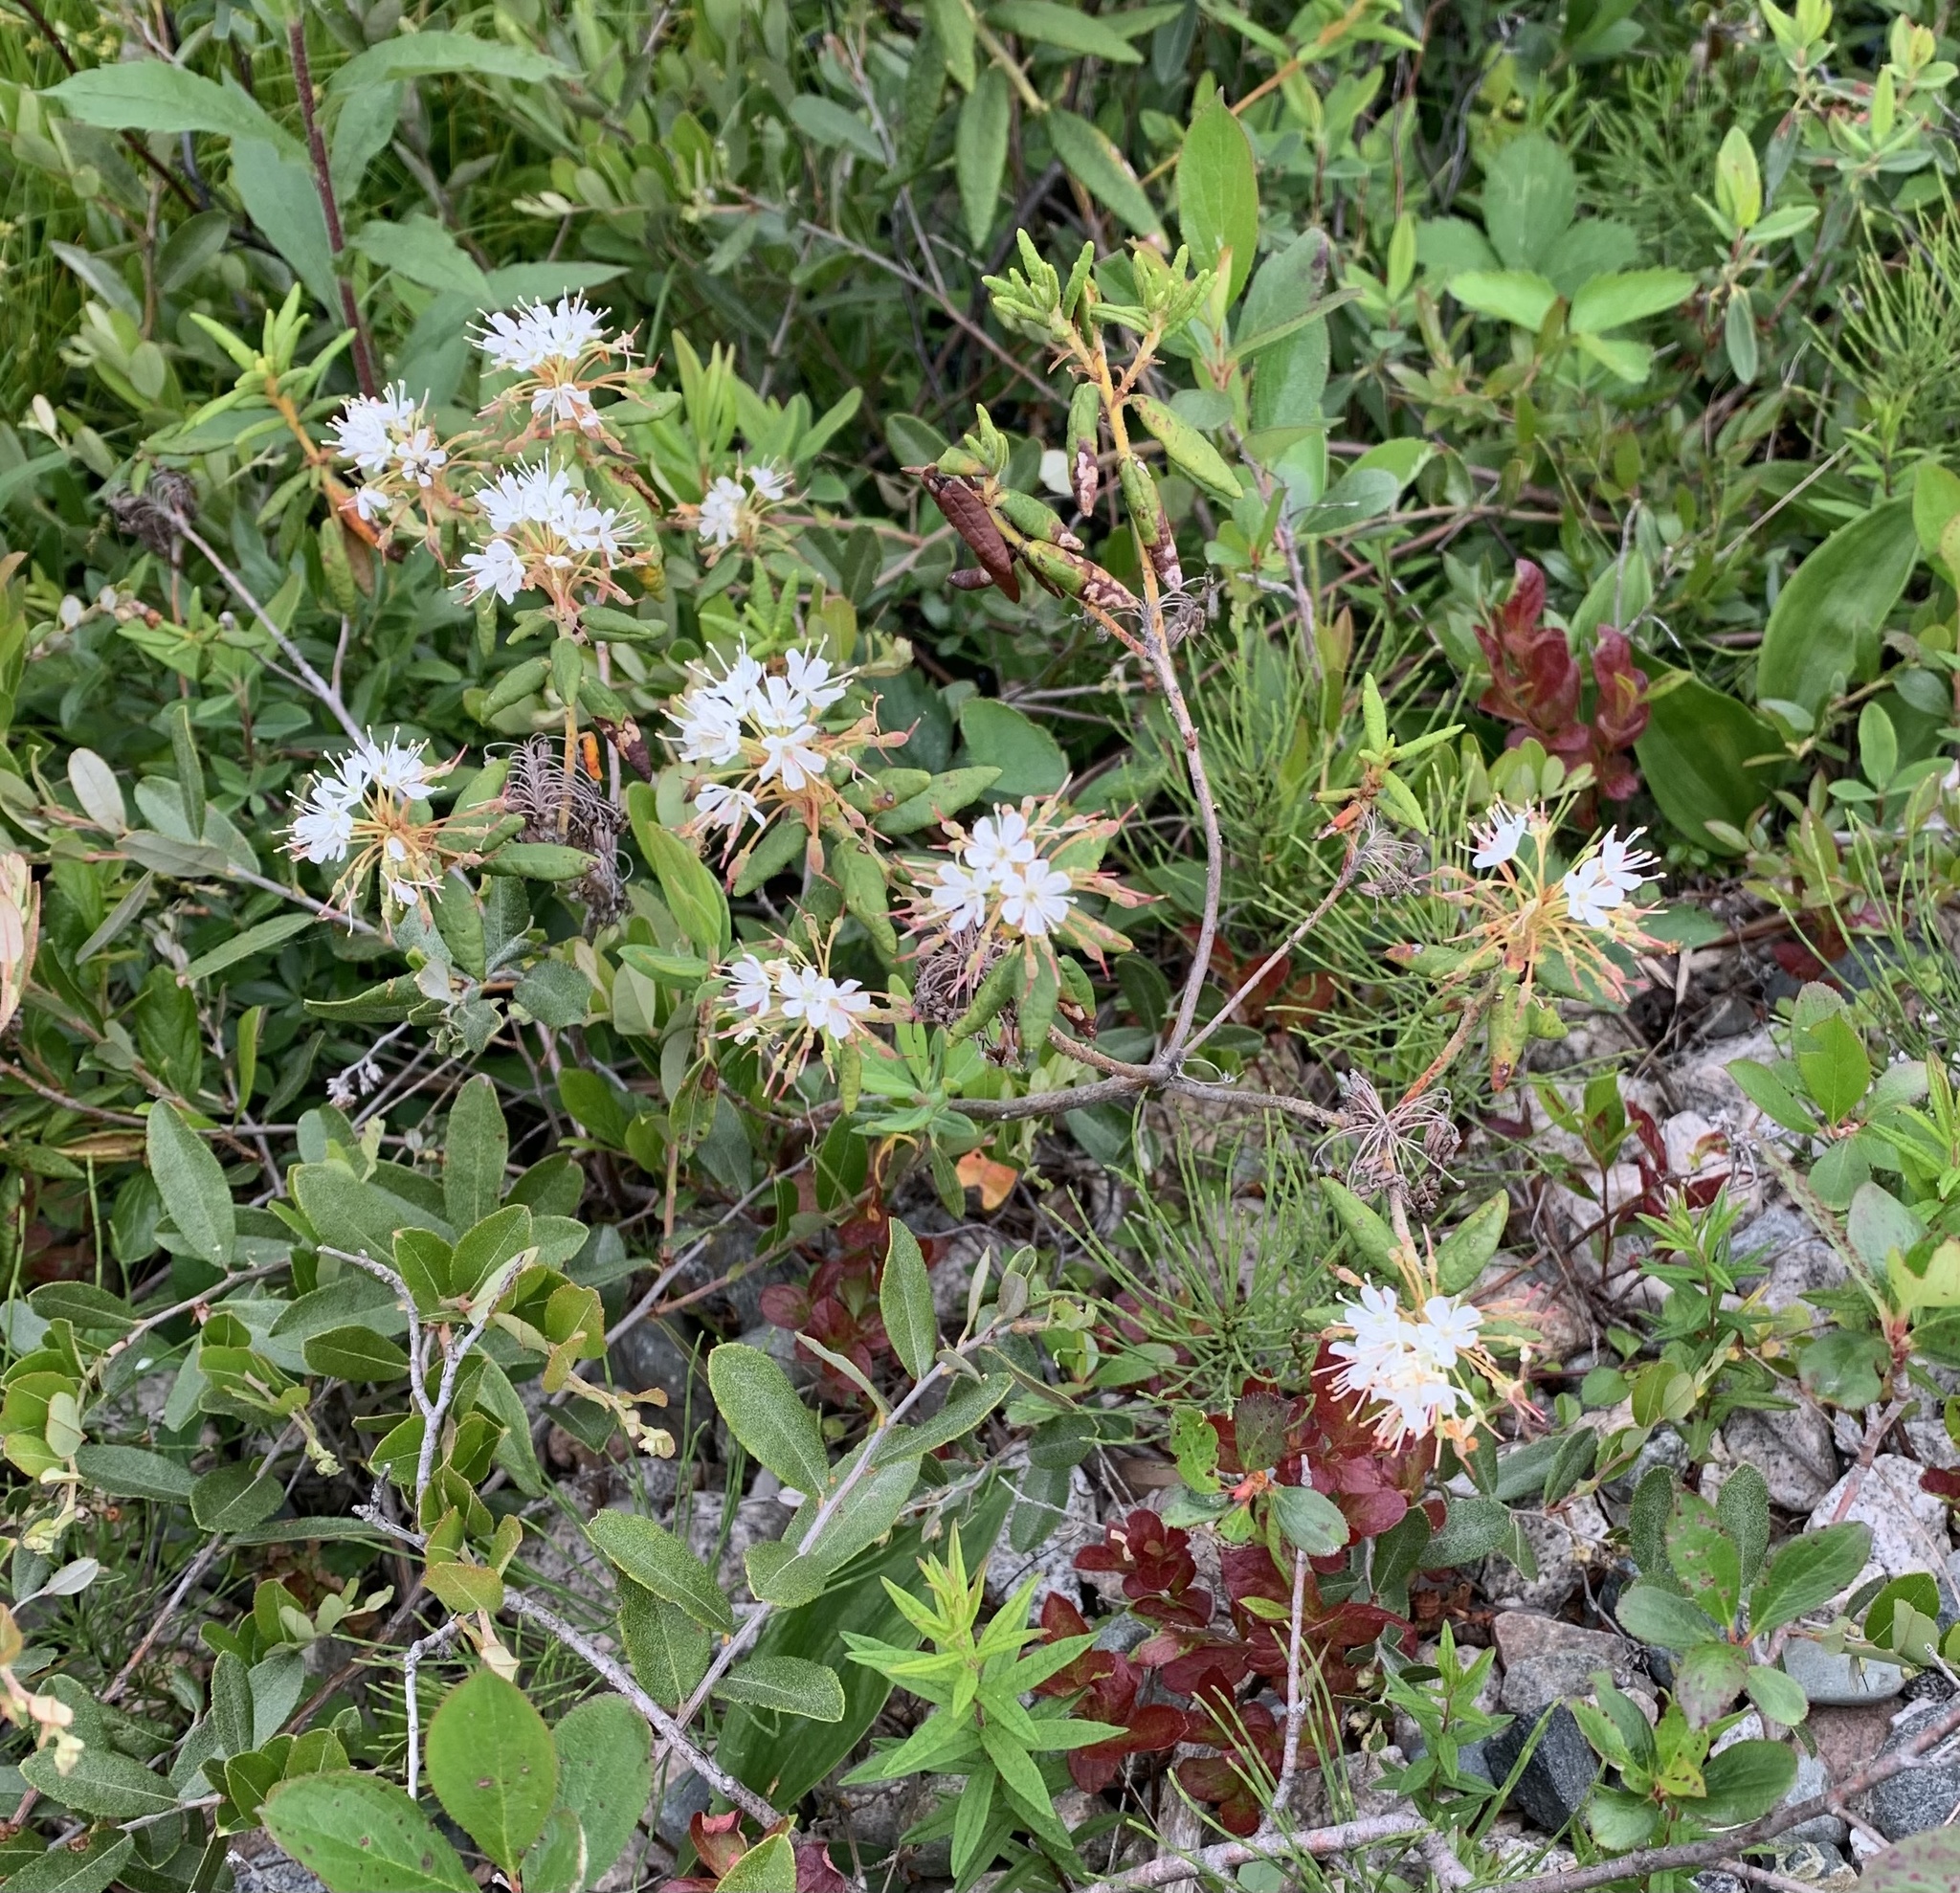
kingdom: Plantae
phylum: Tracheophyta
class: Magnoliopsida
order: Ericales
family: Ericaceae
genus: Rhododendron
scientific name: Rhododendron groenlandicum
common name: Bog labrador tea
